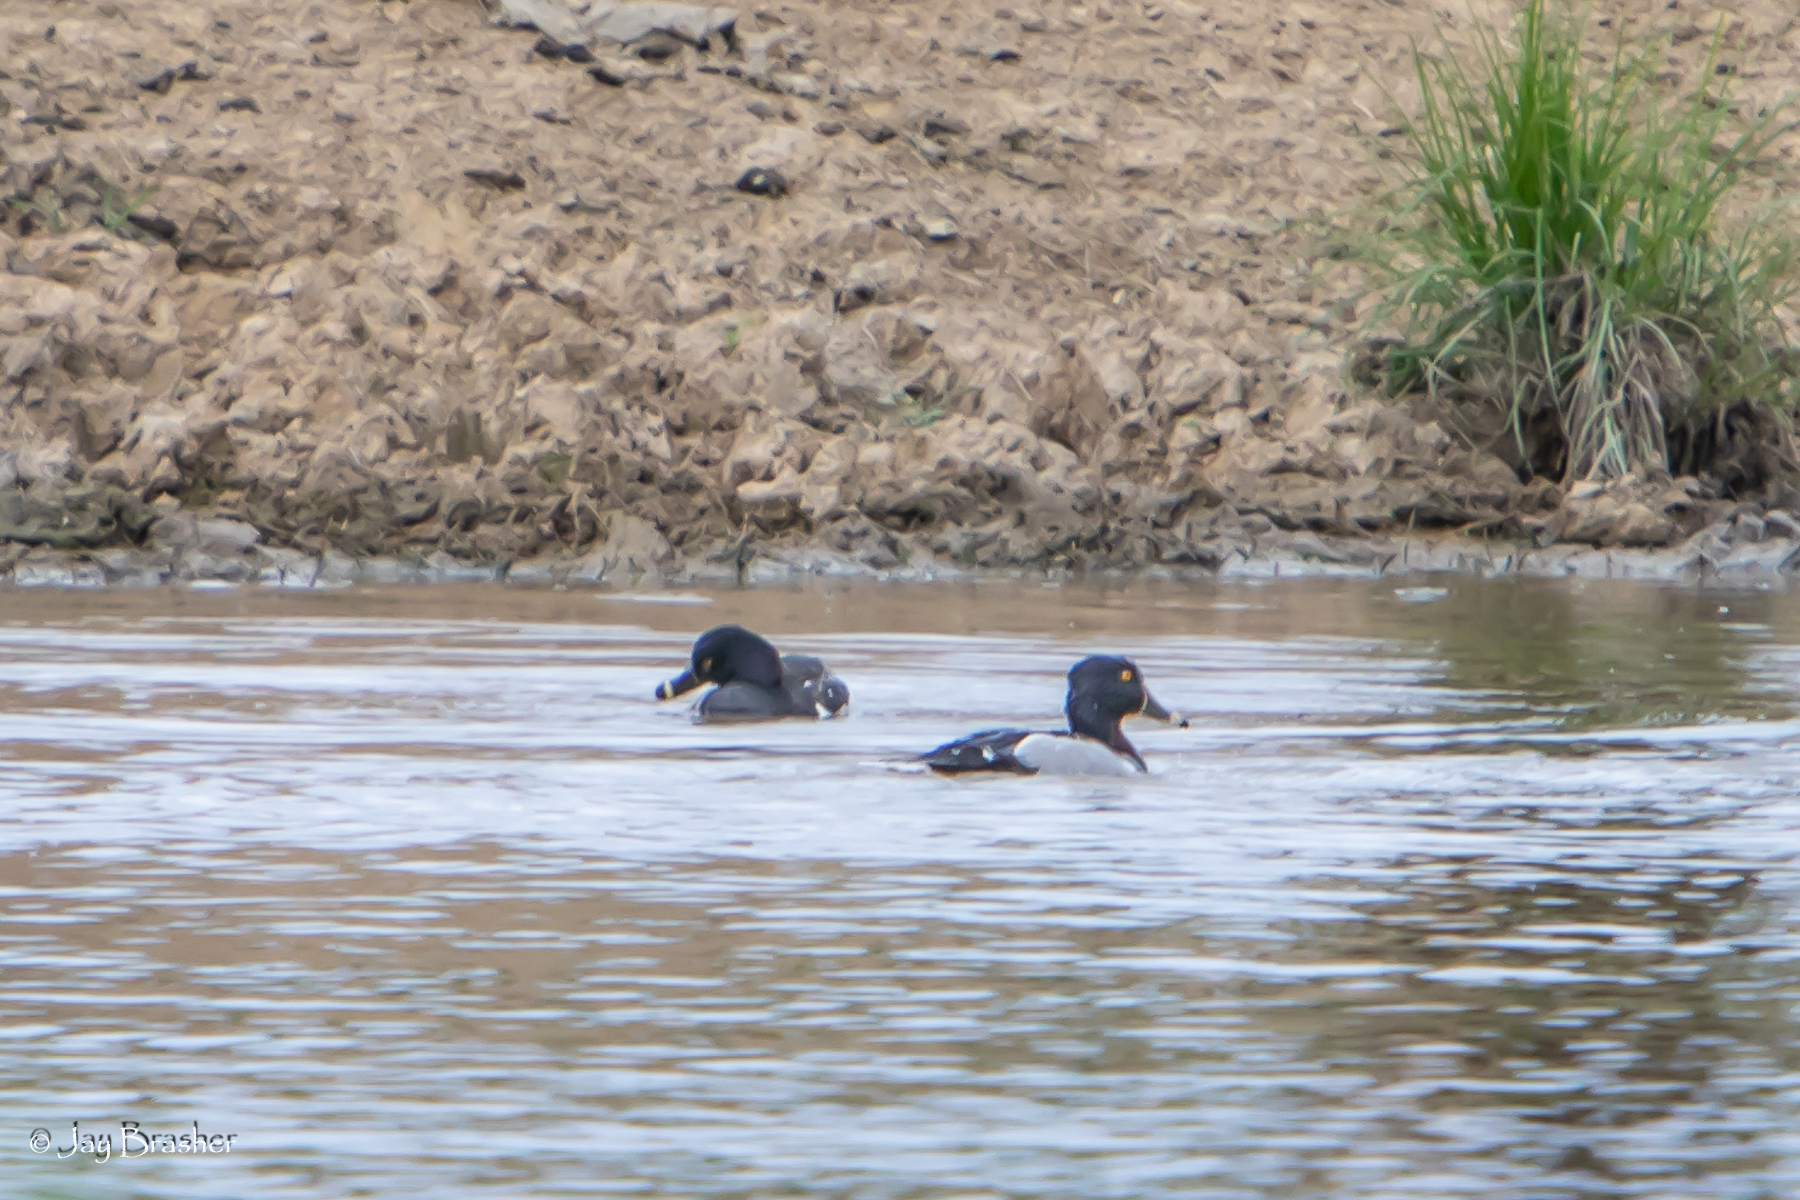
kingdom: Animalia
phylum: Chordata
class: Aves
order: Anseriformes
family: Anatidae
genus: Aythya
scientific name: Aythya collaris
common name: Ring-necked duck
